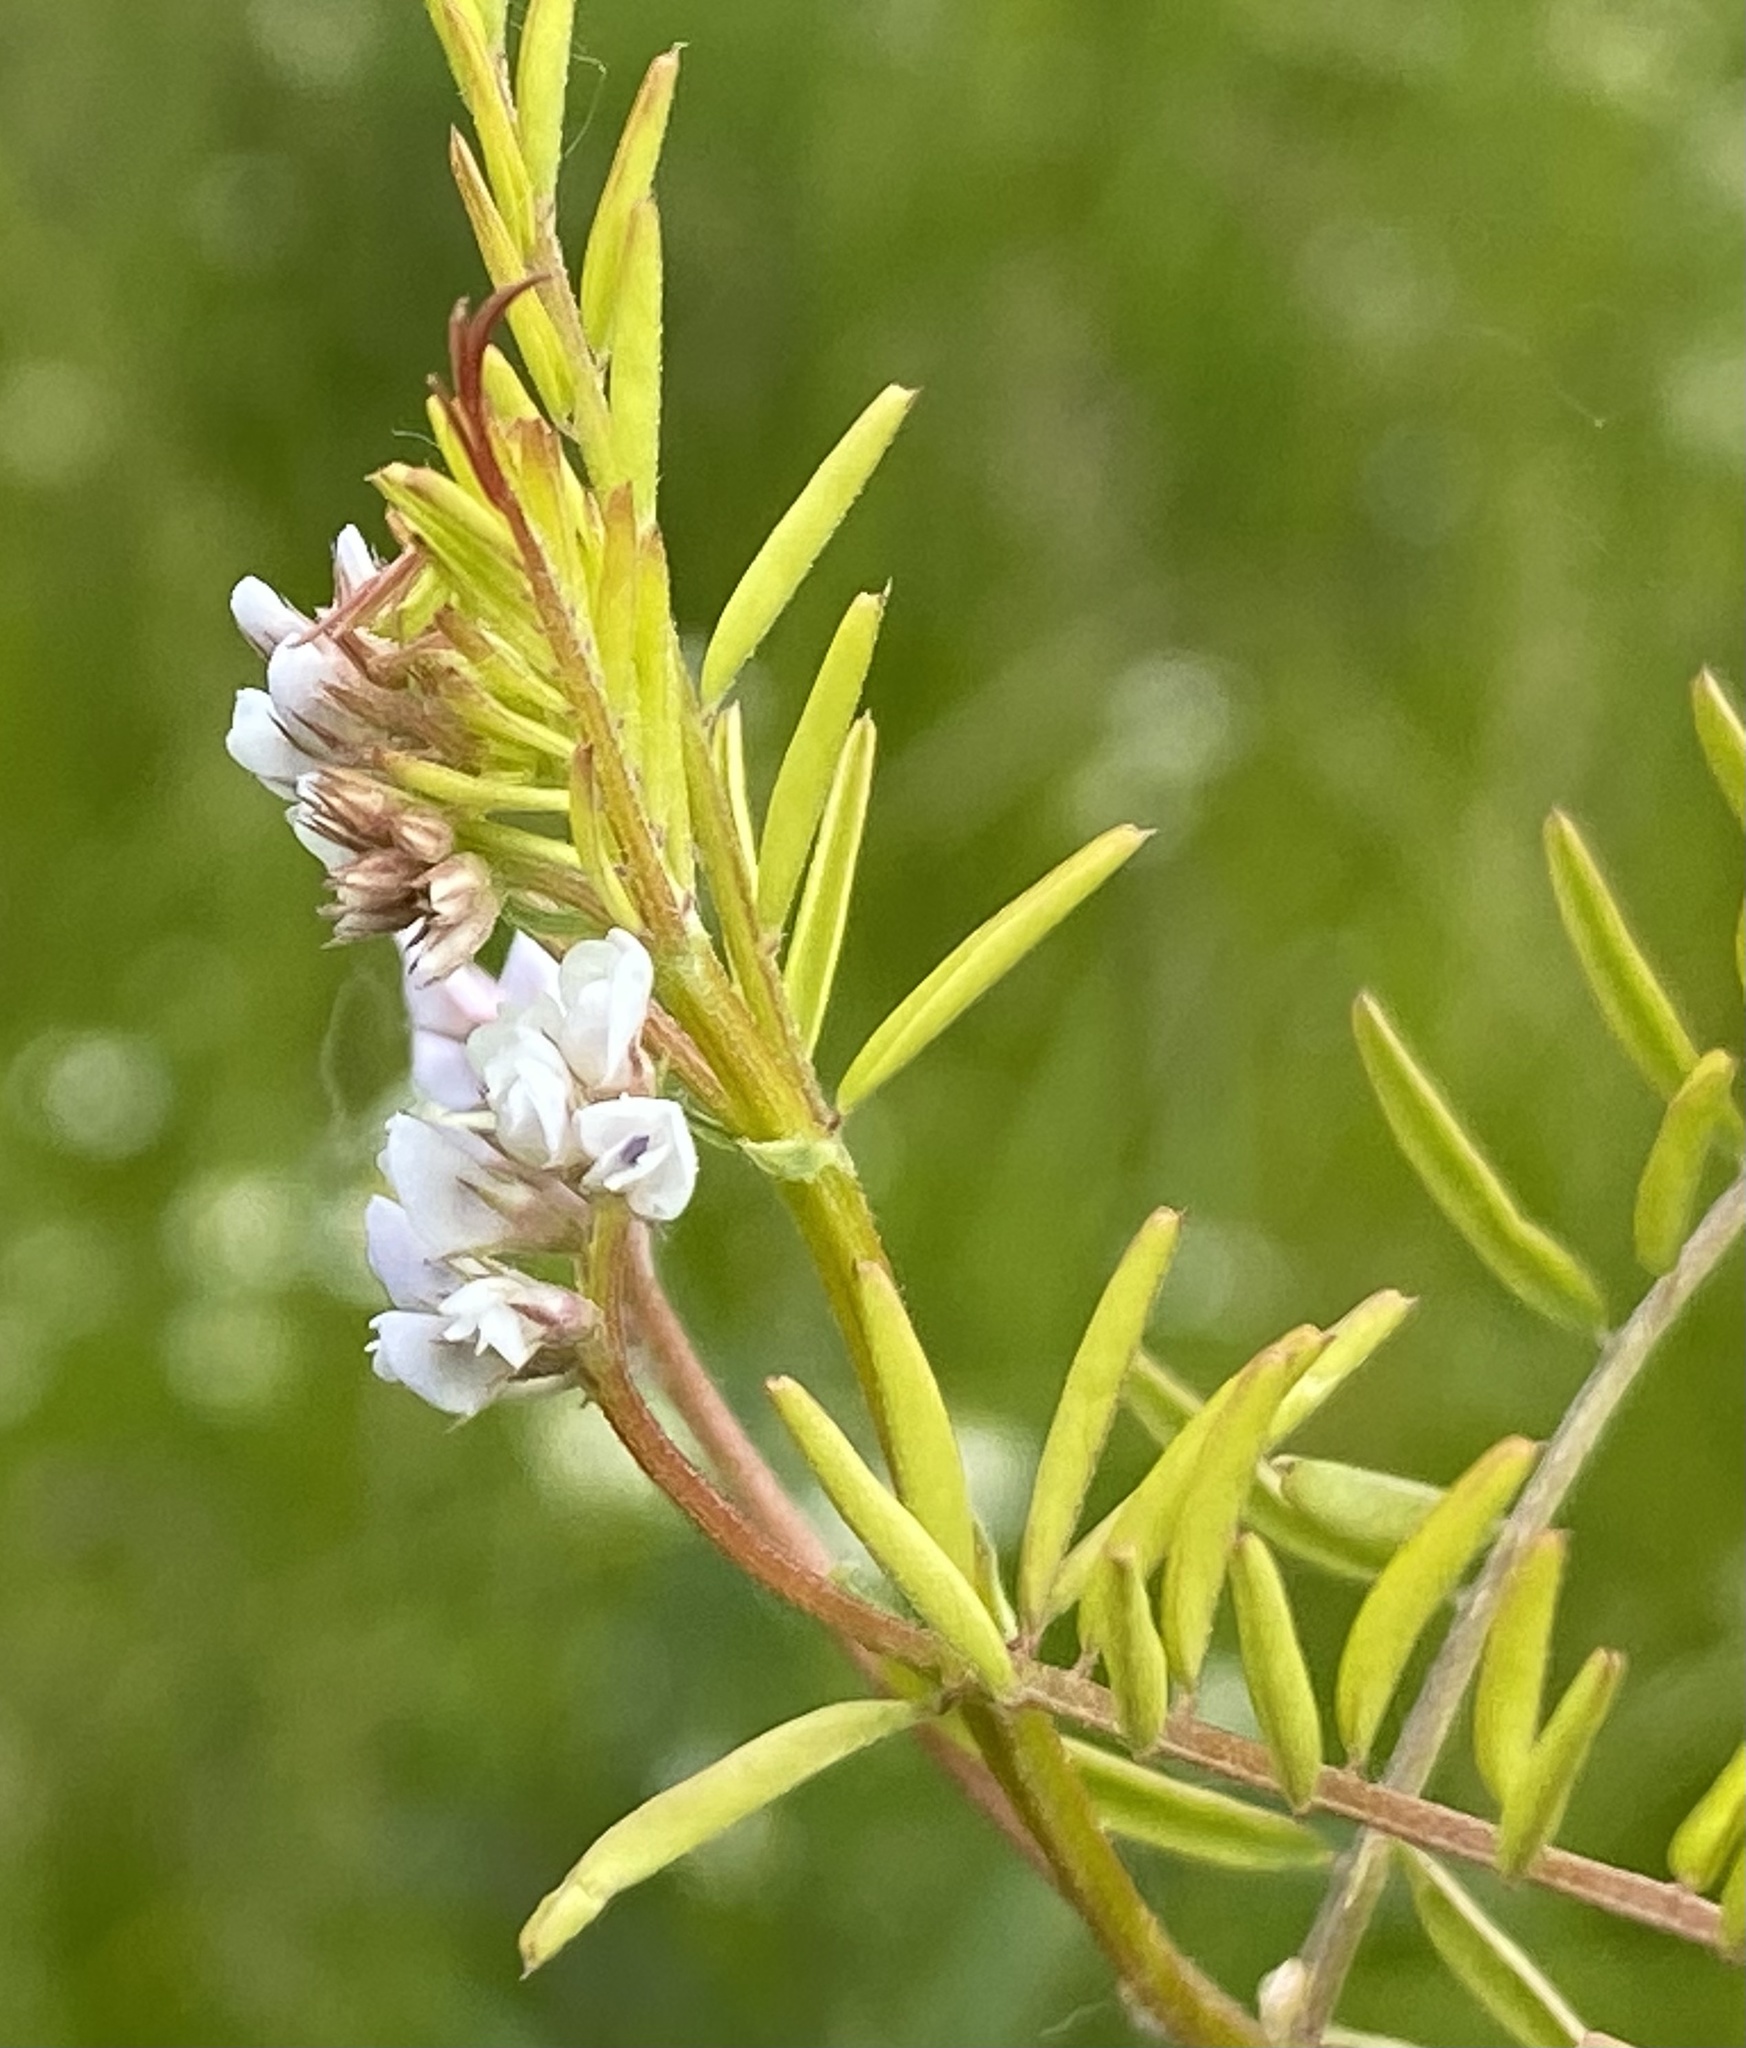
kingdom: Plantae
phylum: Tracheophyta
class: Magnoliopsida
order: Fabales
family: Fabaceae
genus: Vicia
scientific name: Vicia hirsuta
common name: Tiny vetch
